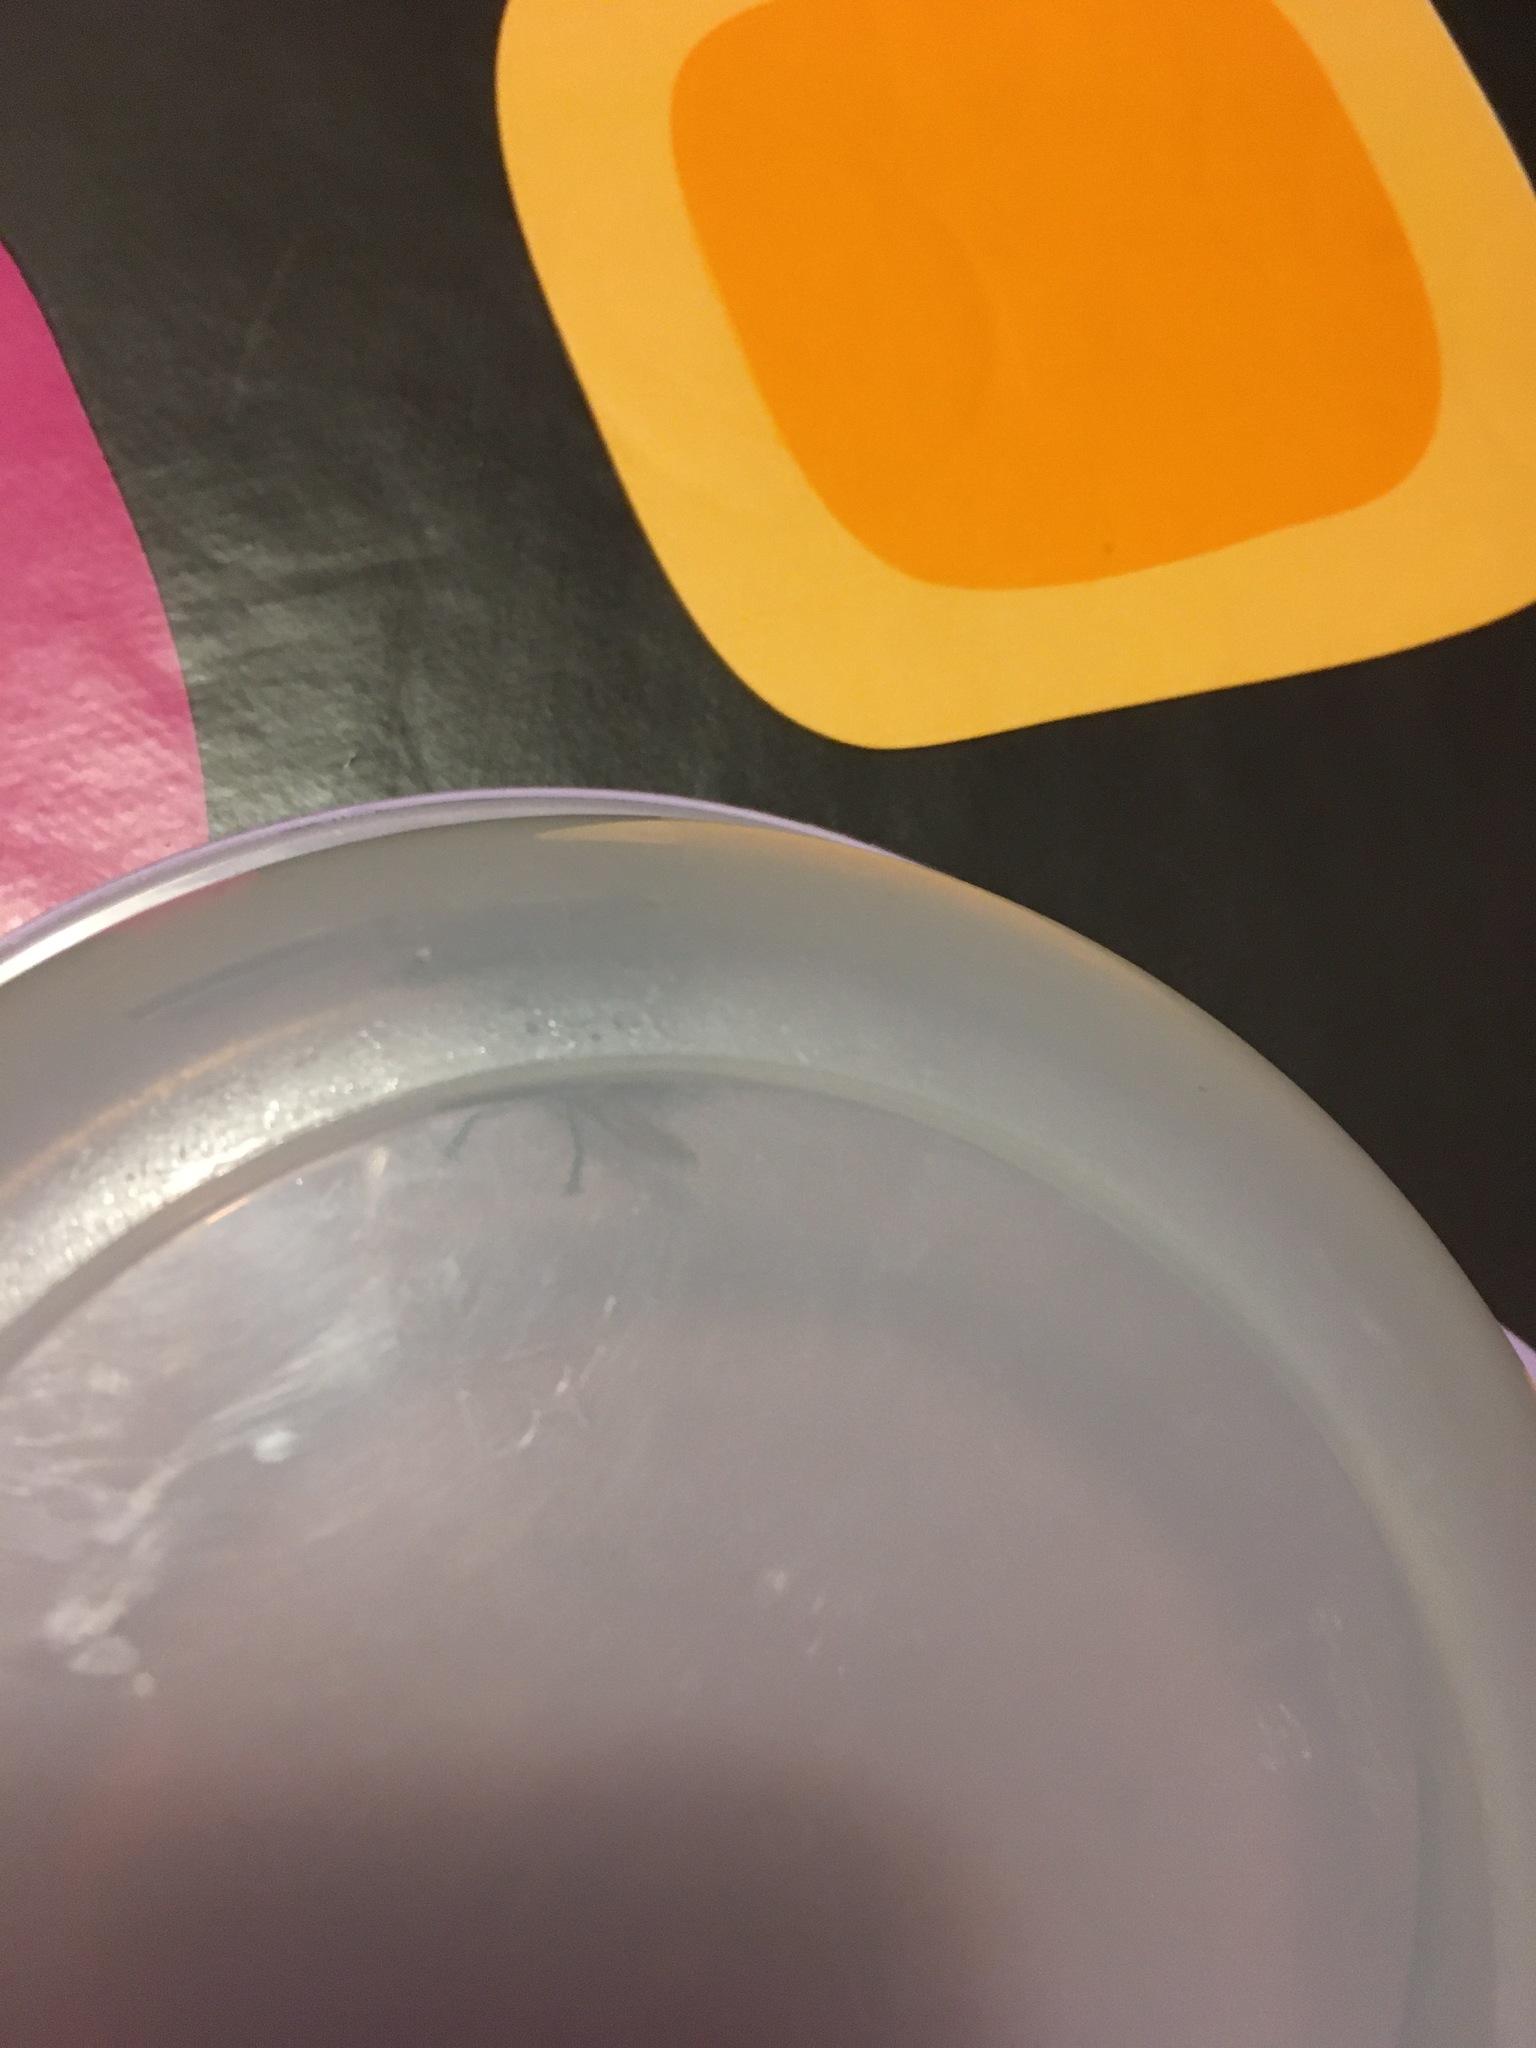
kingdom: Animalia
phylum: Arthropoda
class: Insecta
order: Hymenoptera
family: Vespidae
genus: Vespa
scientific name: Vespa crabro
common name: Hornet
